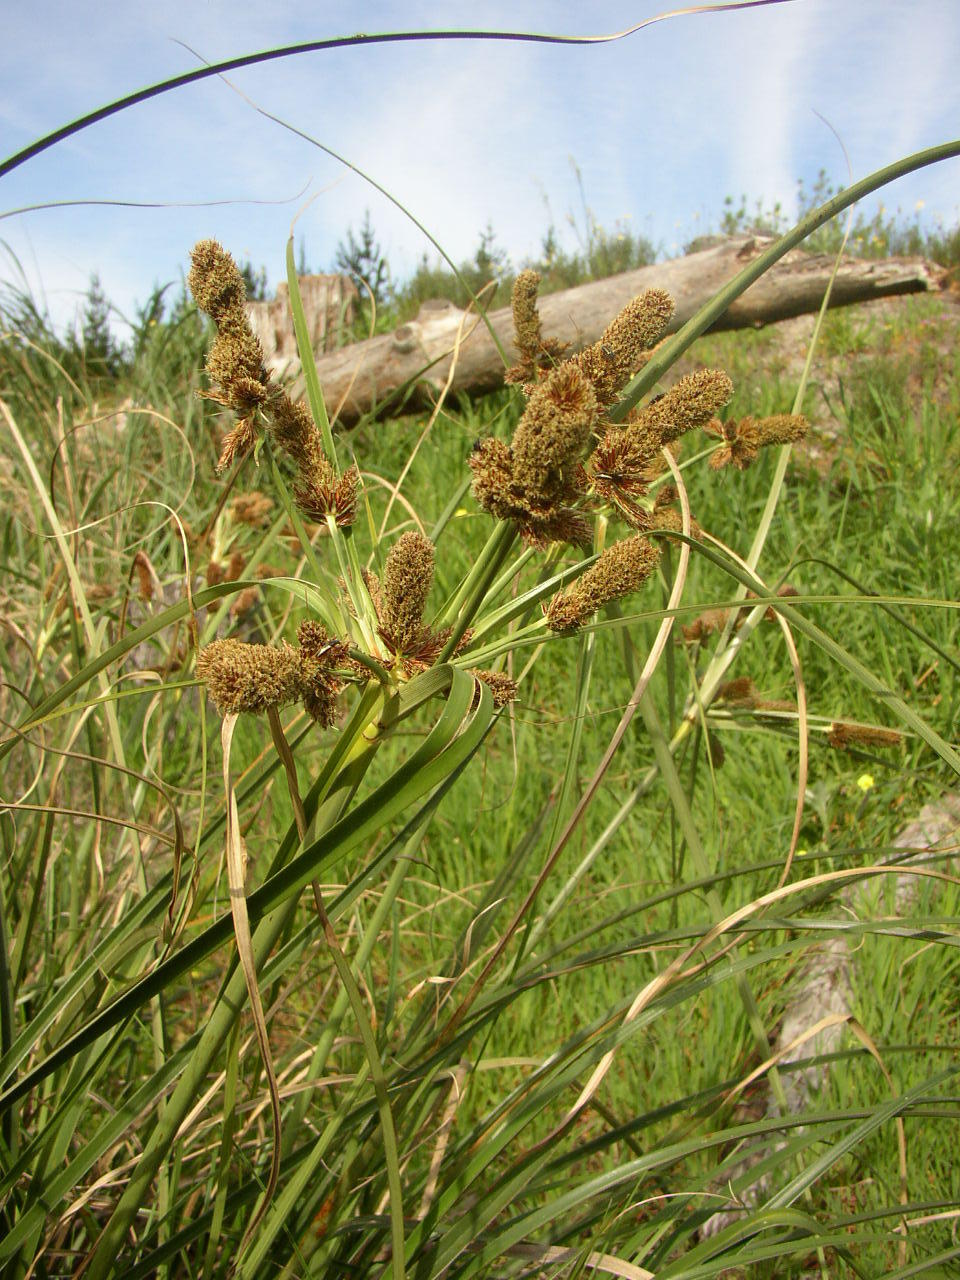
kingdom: Plantae
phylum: Tracheophyta
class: Liliopsida
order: Poales
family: Cyperaceae
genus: Cyperus
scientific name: Cyperus thunbergii
